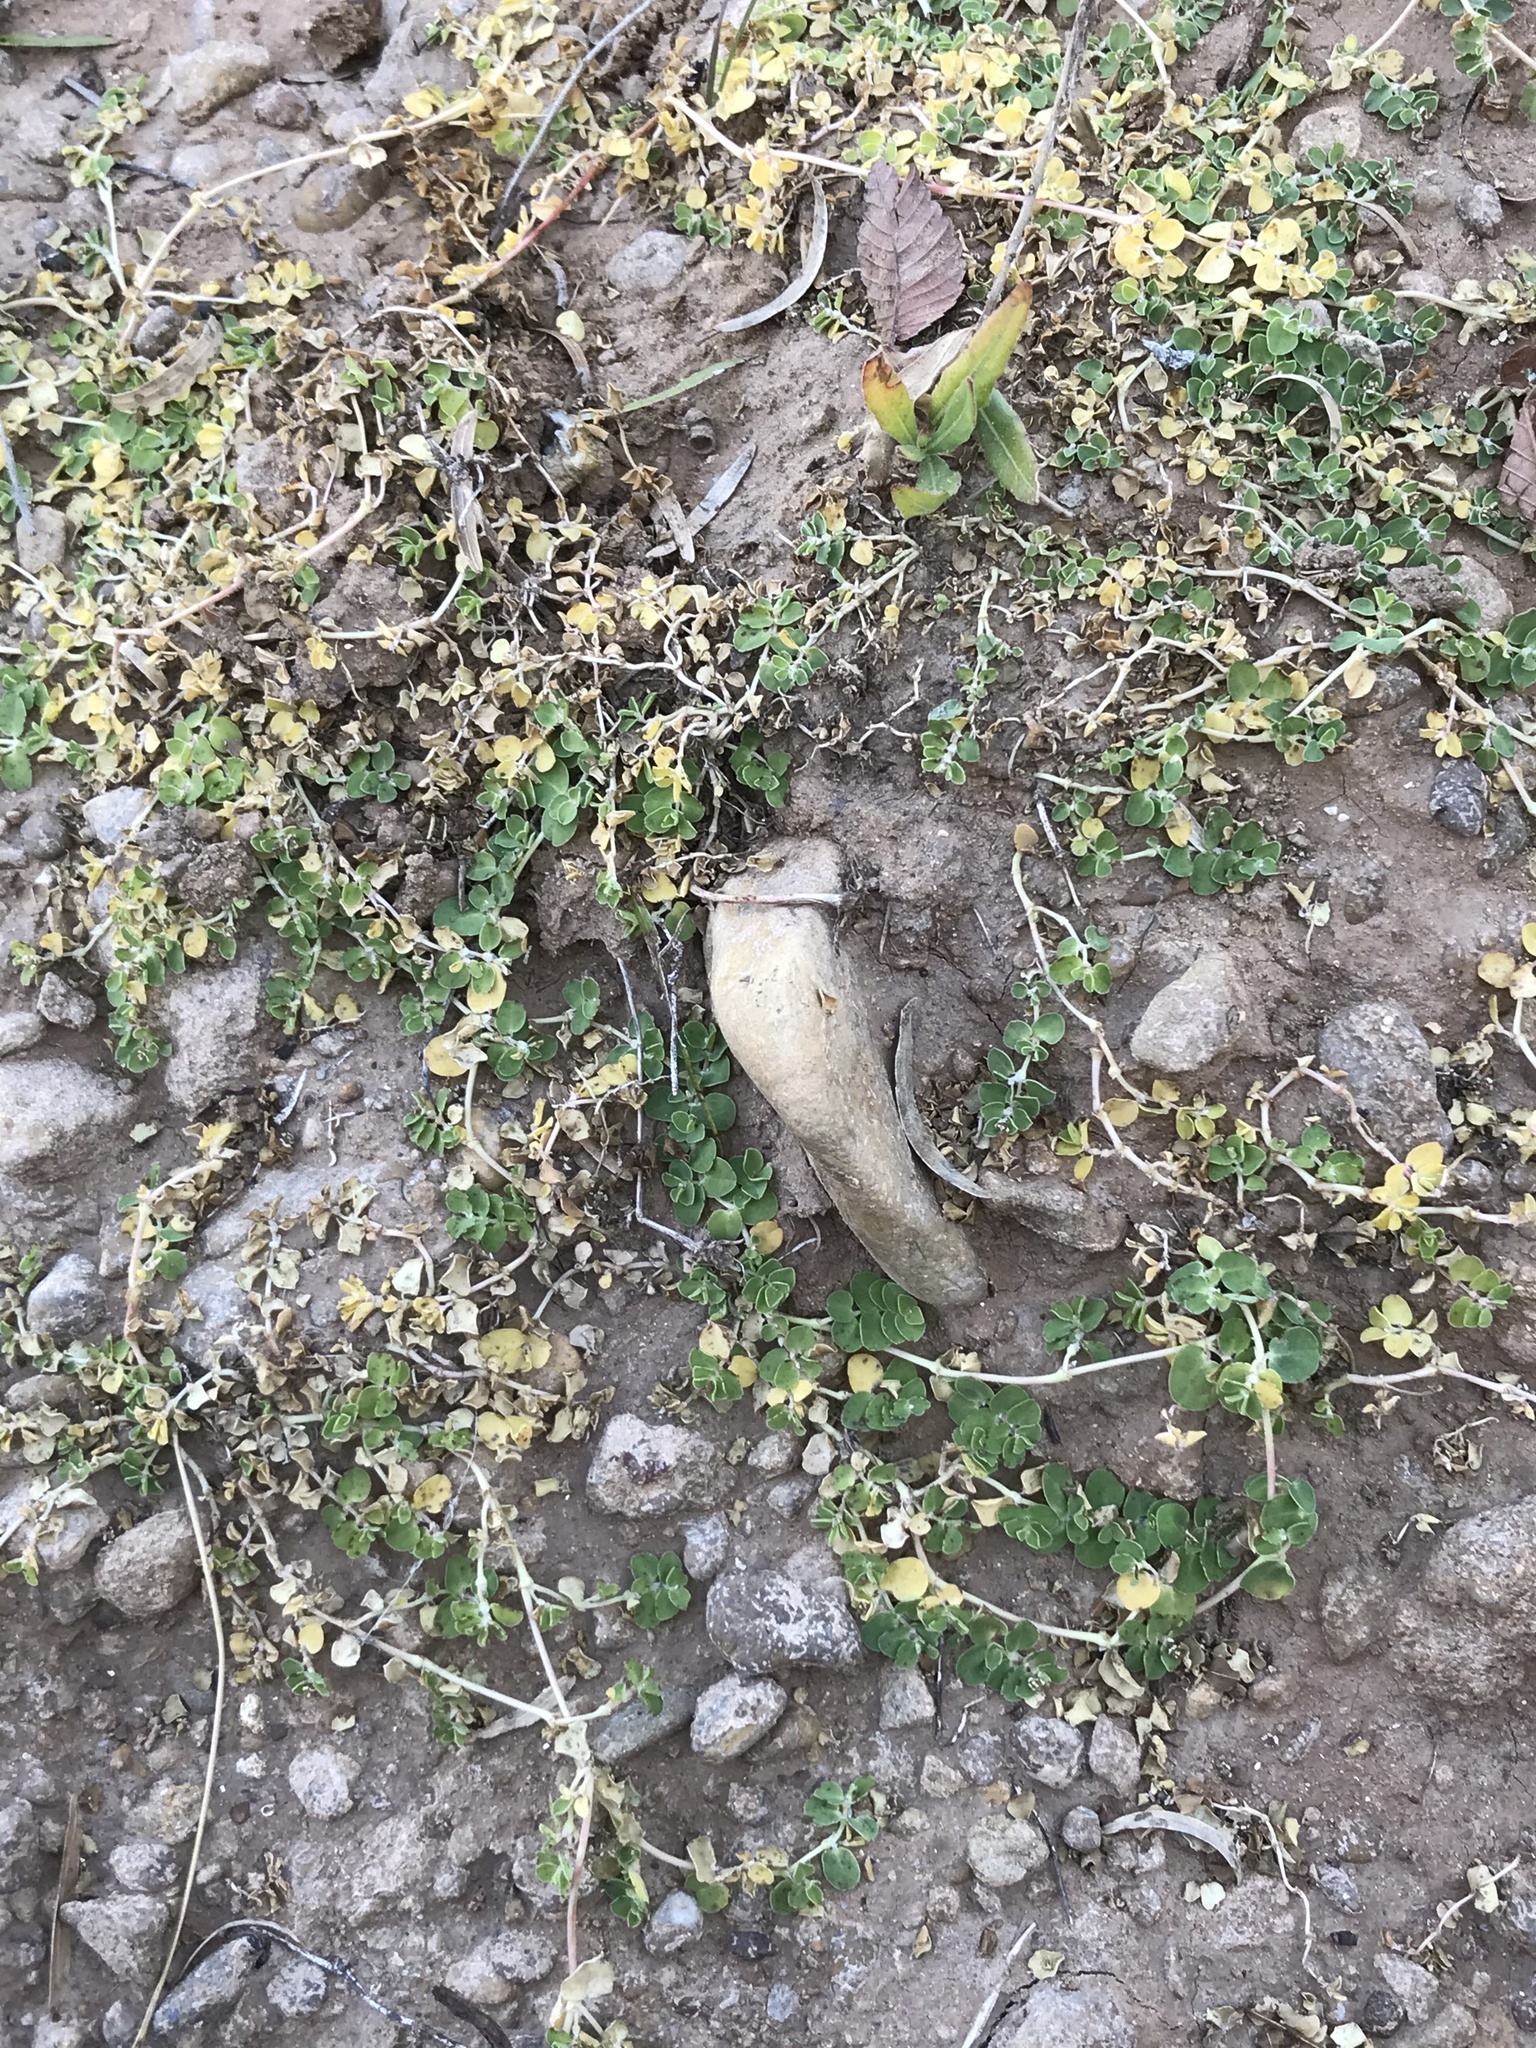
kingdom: Plantae
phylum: Tracheophyta
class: Magnoliopsida
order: Malpighiales
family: Euphorbiaceae
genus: Euphorbia
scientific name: Euphorbia albomarginata
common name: Whitemargin sandmat
